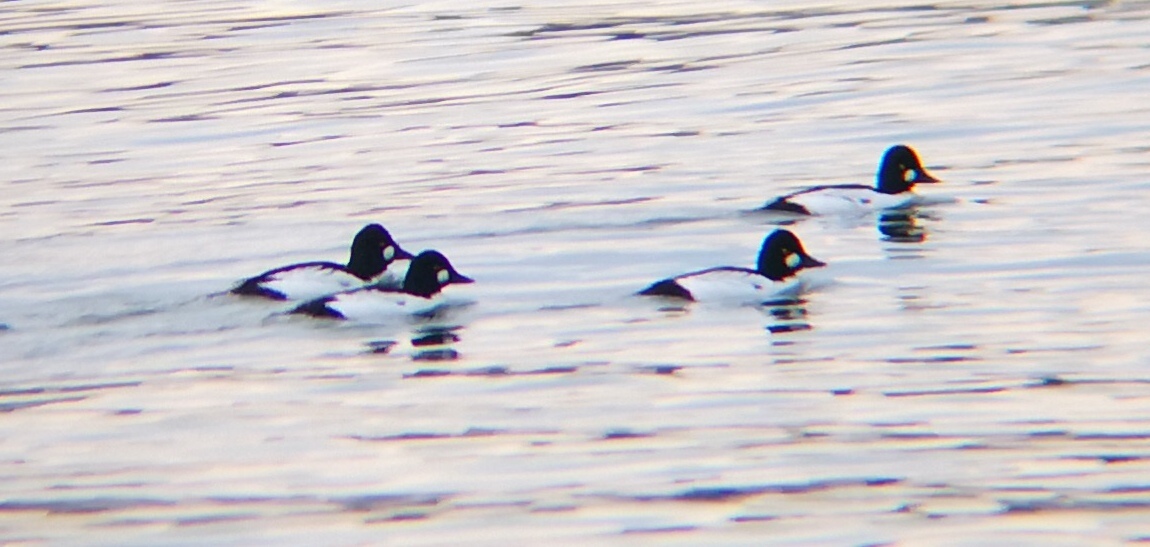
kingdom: Animalia
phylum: Chordata
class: Aves
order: Anseriformes
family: Anatidae
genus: Bucephala
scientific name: Bucephala clangula
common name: Common goldeneye
